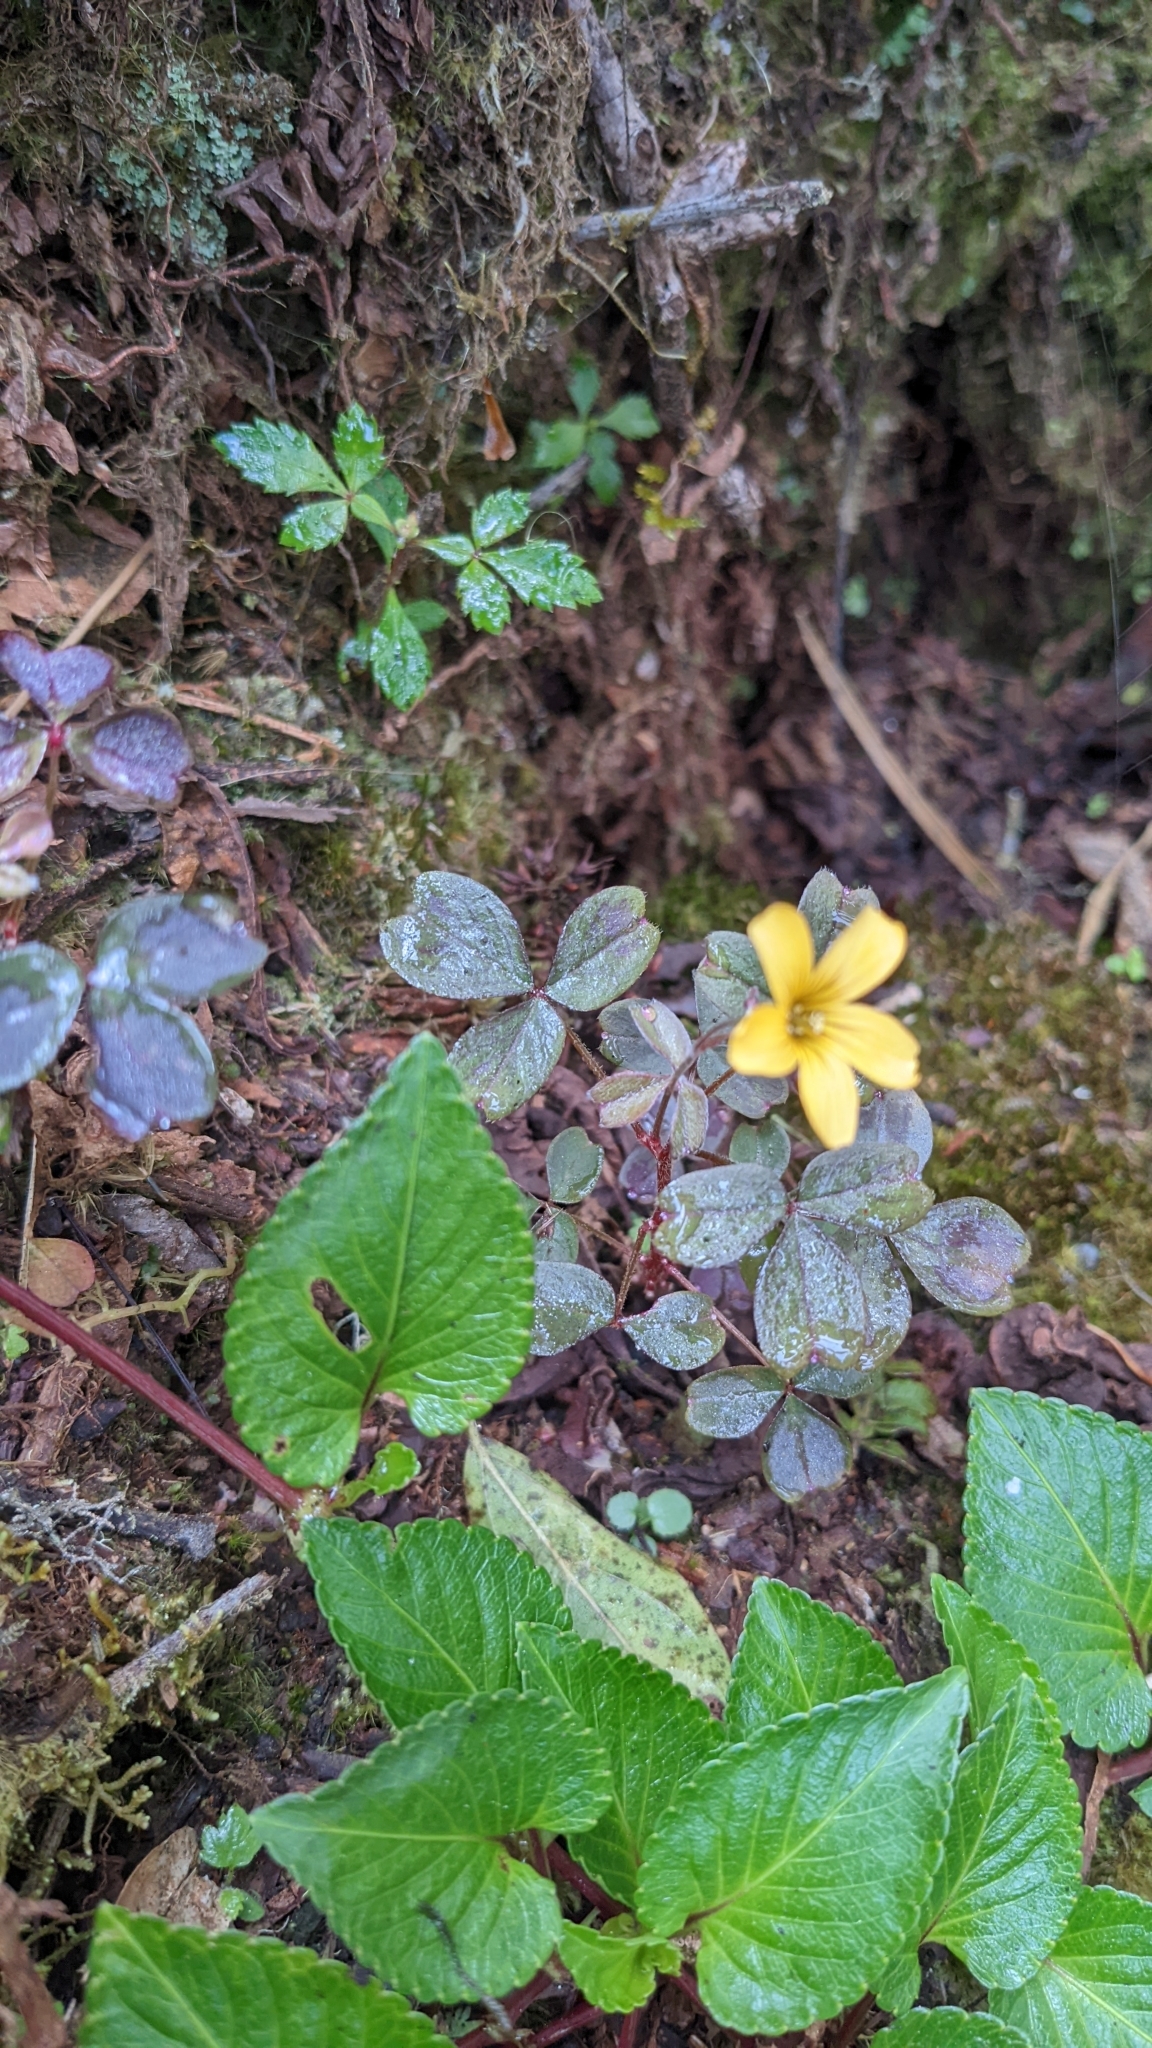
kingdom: Plantae
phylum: Tracheophyta
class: Magnoliopsida
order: Oxalidales
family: Oxalidaceae
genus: Oxalis
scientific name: Oxalis spiralis
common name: Spiral sorrel
